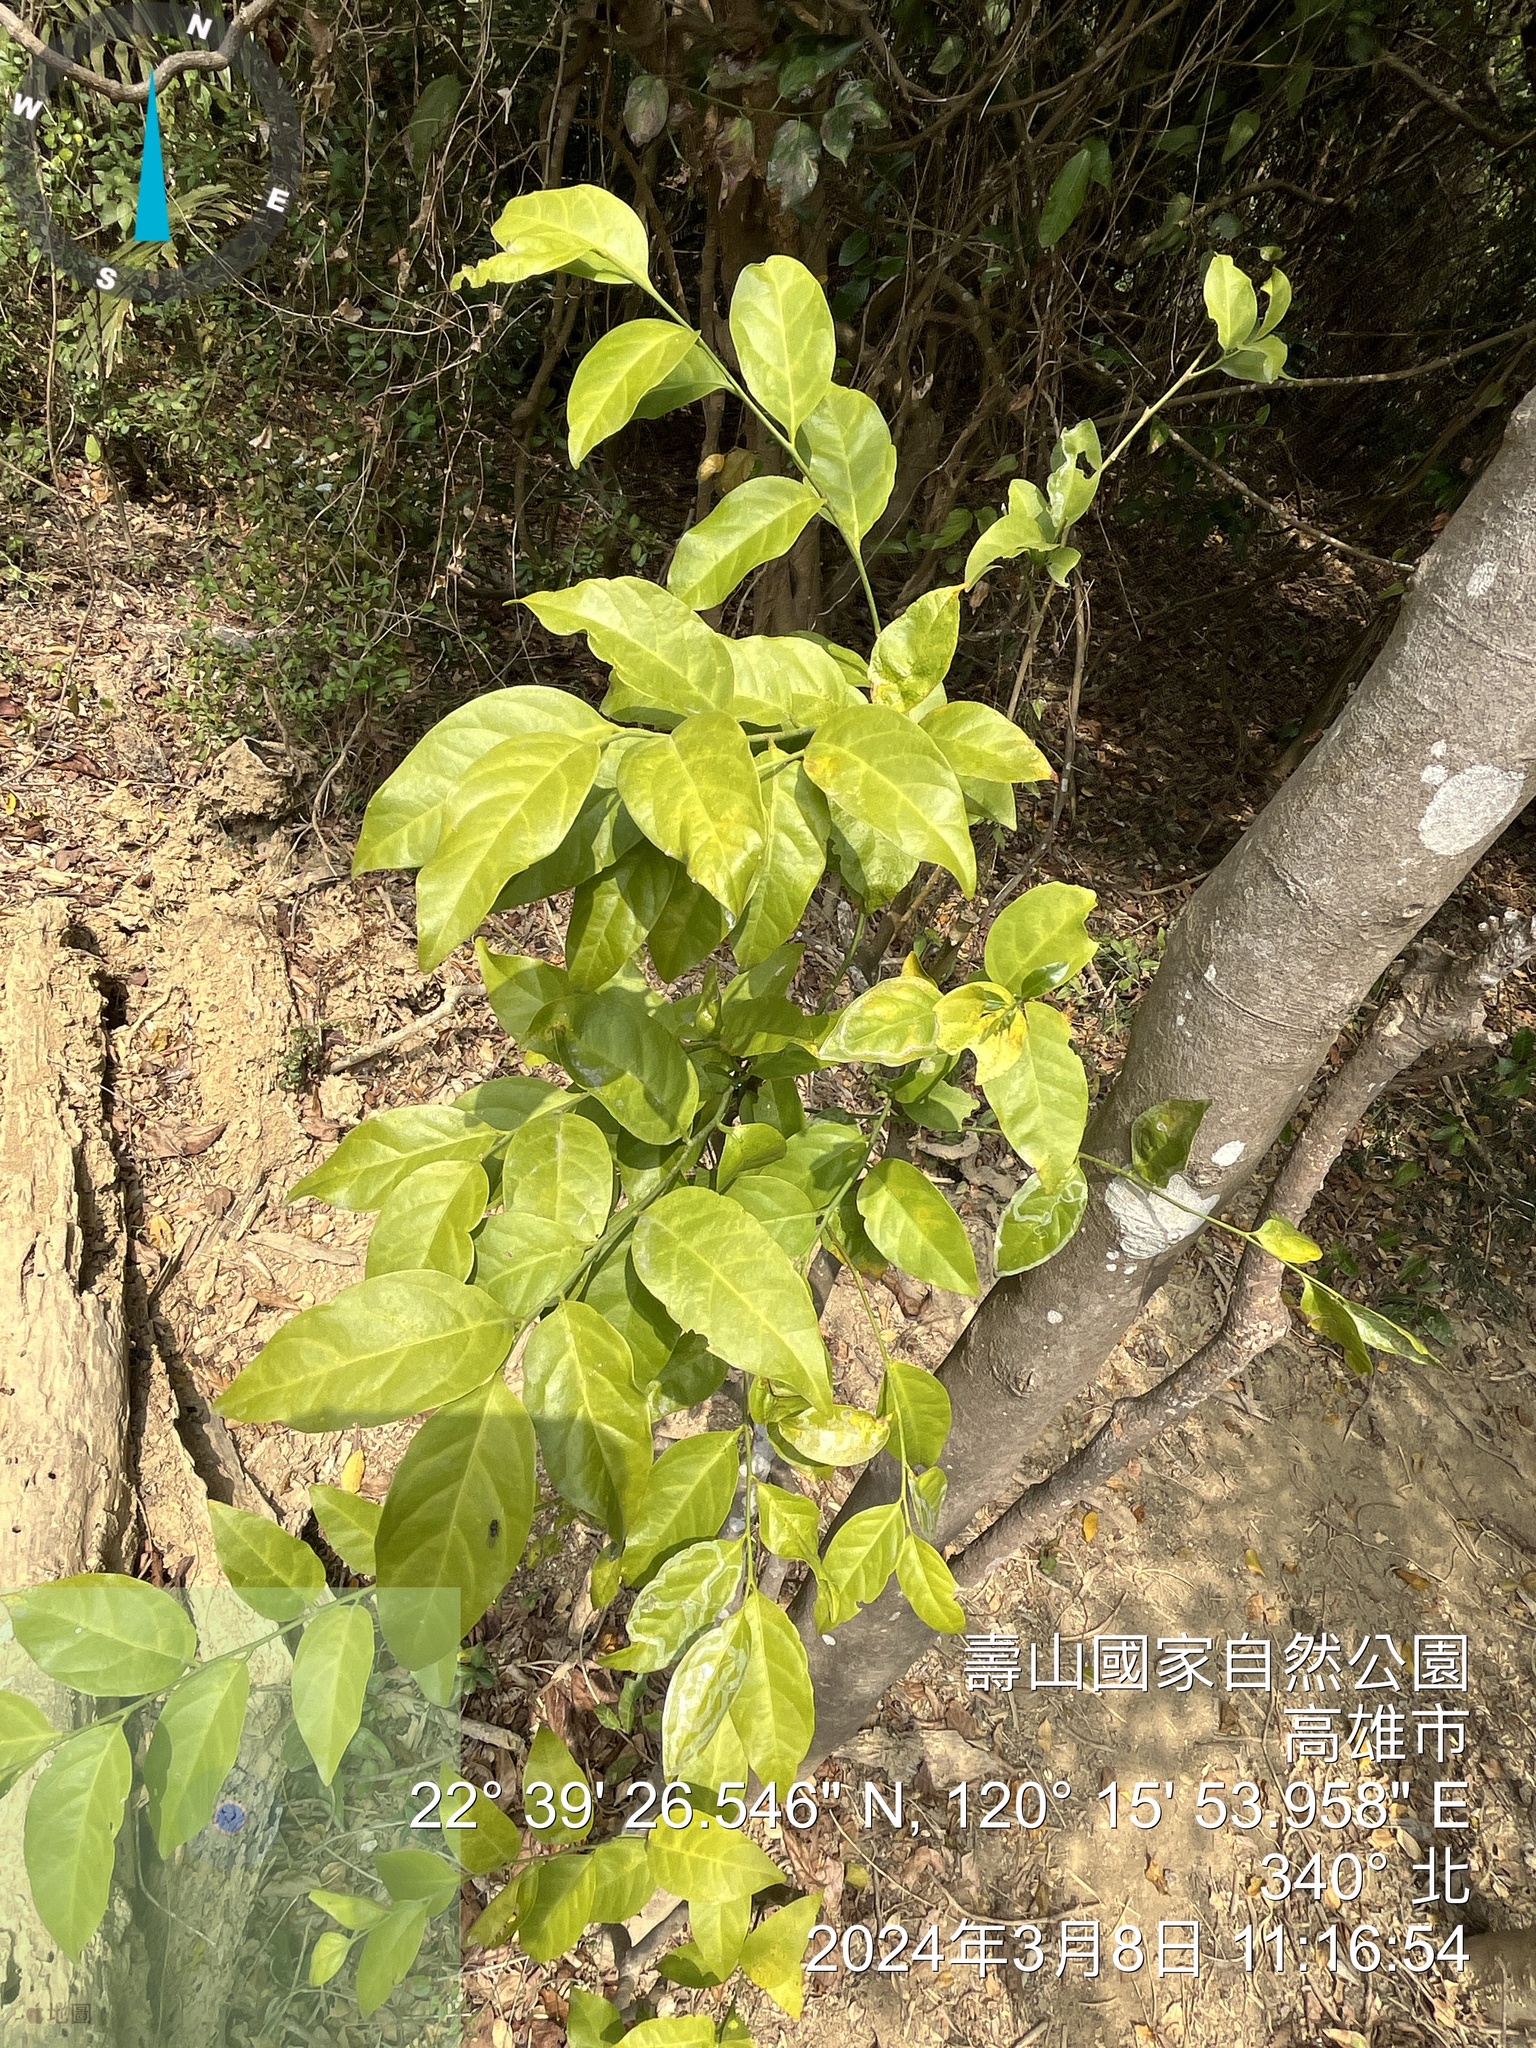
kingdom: Plantae
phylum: Tracheophyta
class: Magnoliopsida
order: Santalales
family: Opiliaceae
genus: Champereia
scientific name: Champereia manillana
